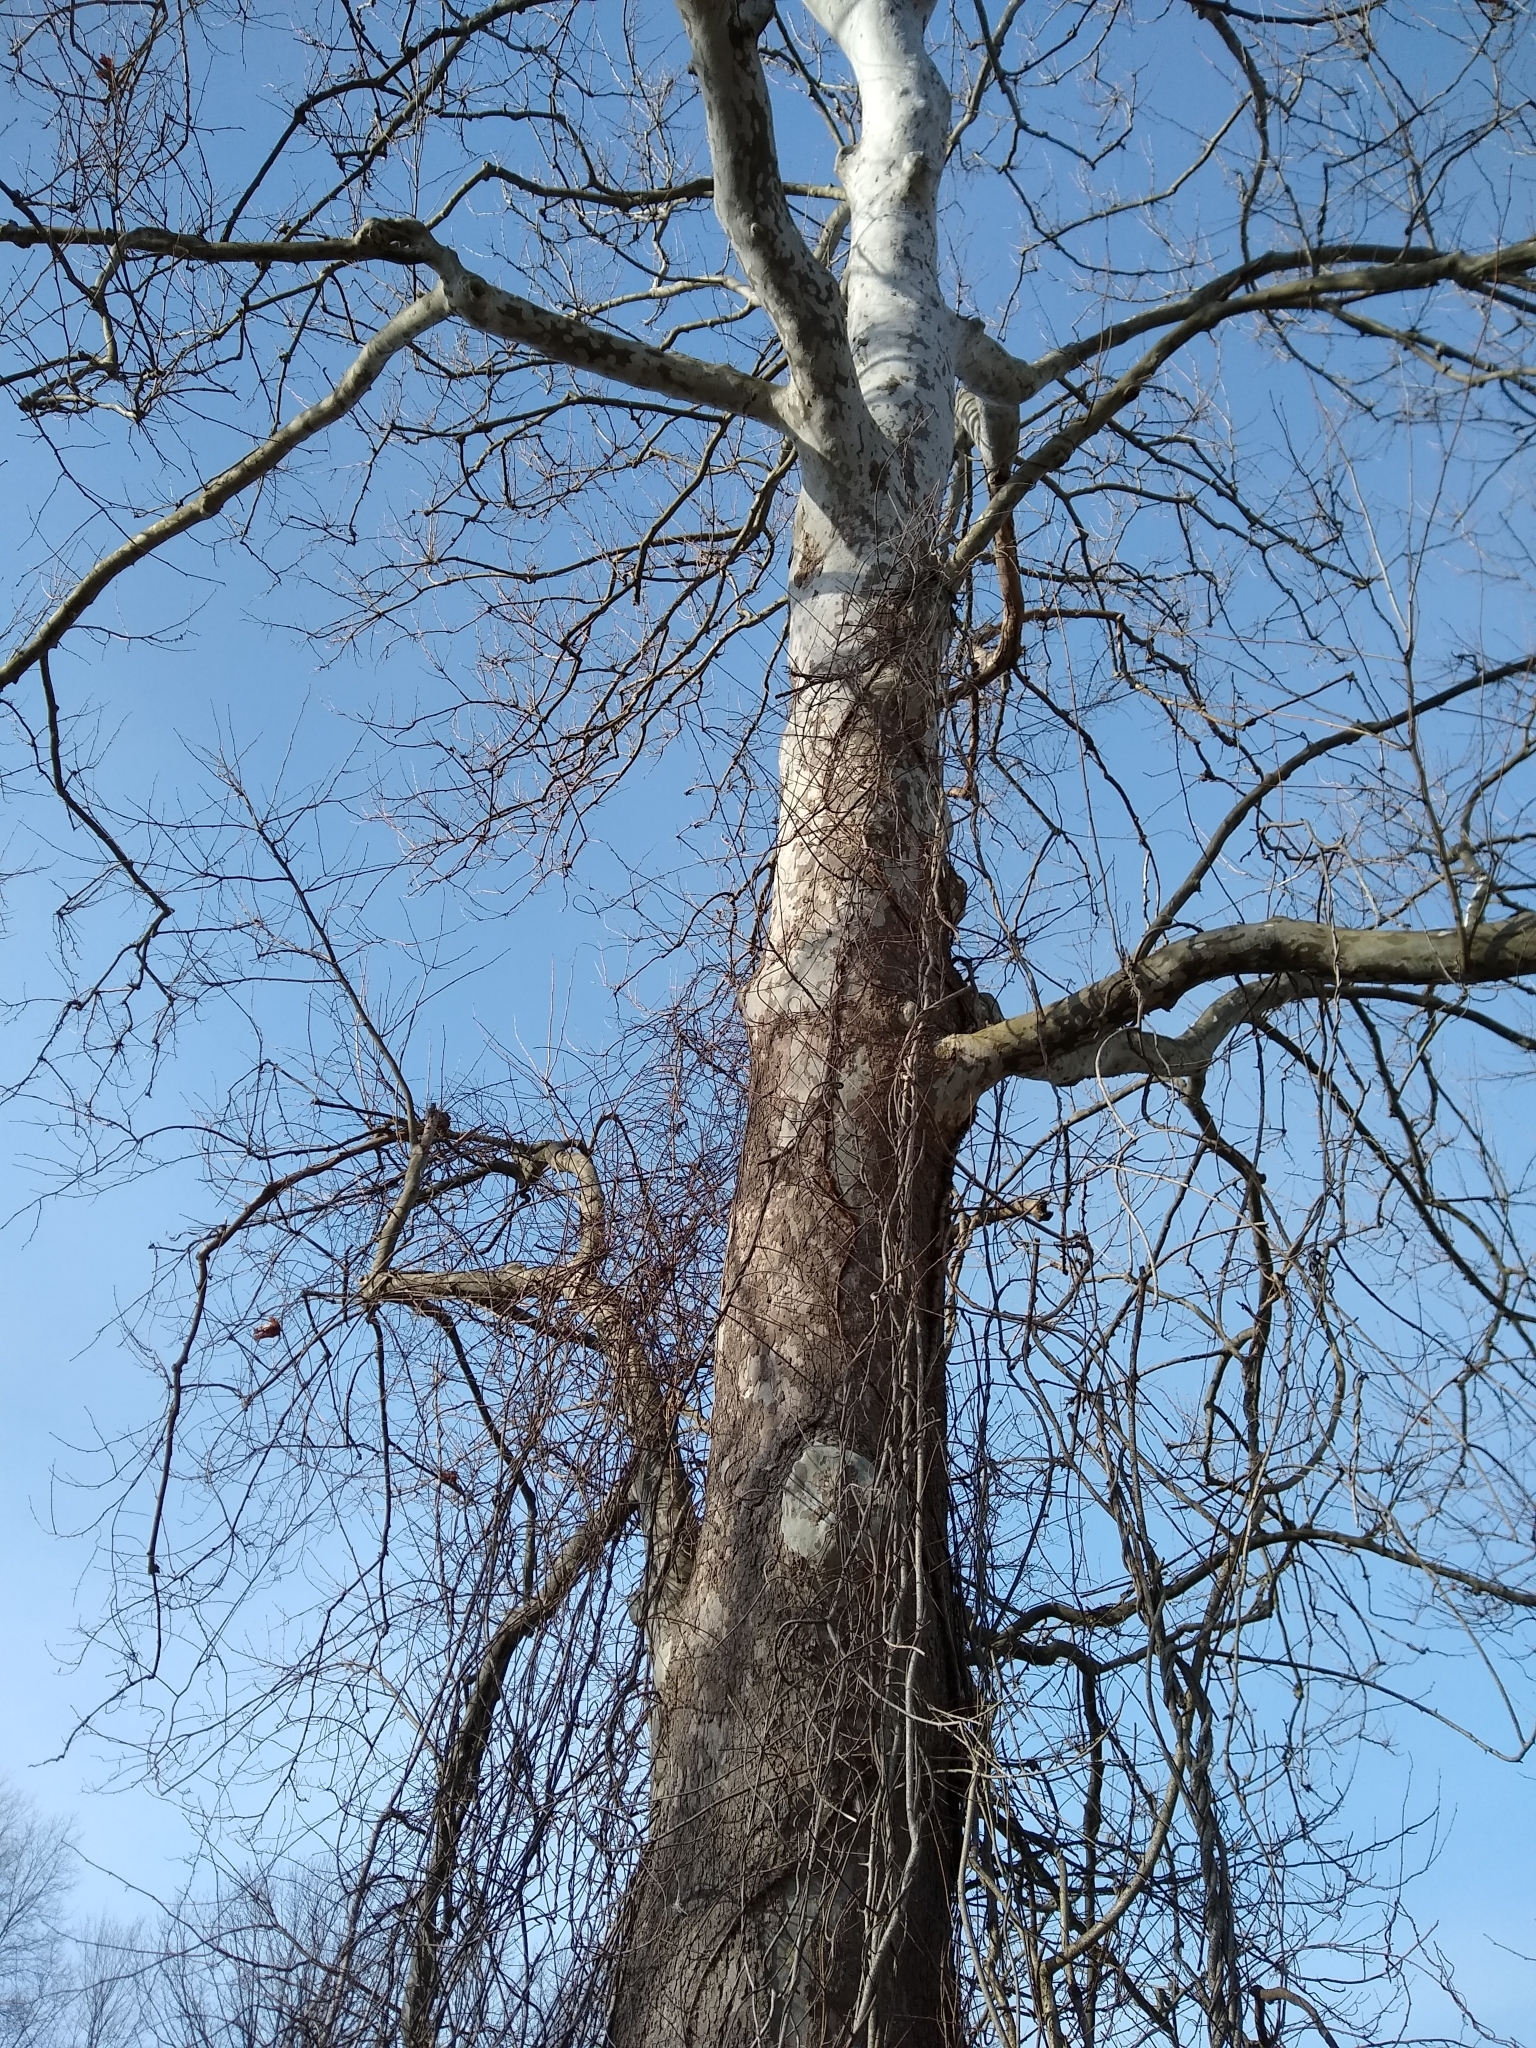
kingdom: Plantae
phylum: Tracheophyta
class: Magnoliopsida
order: Proteales
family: Platanaceae
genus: Platanus
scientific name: Platanus occidentalis
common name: American sycamore
